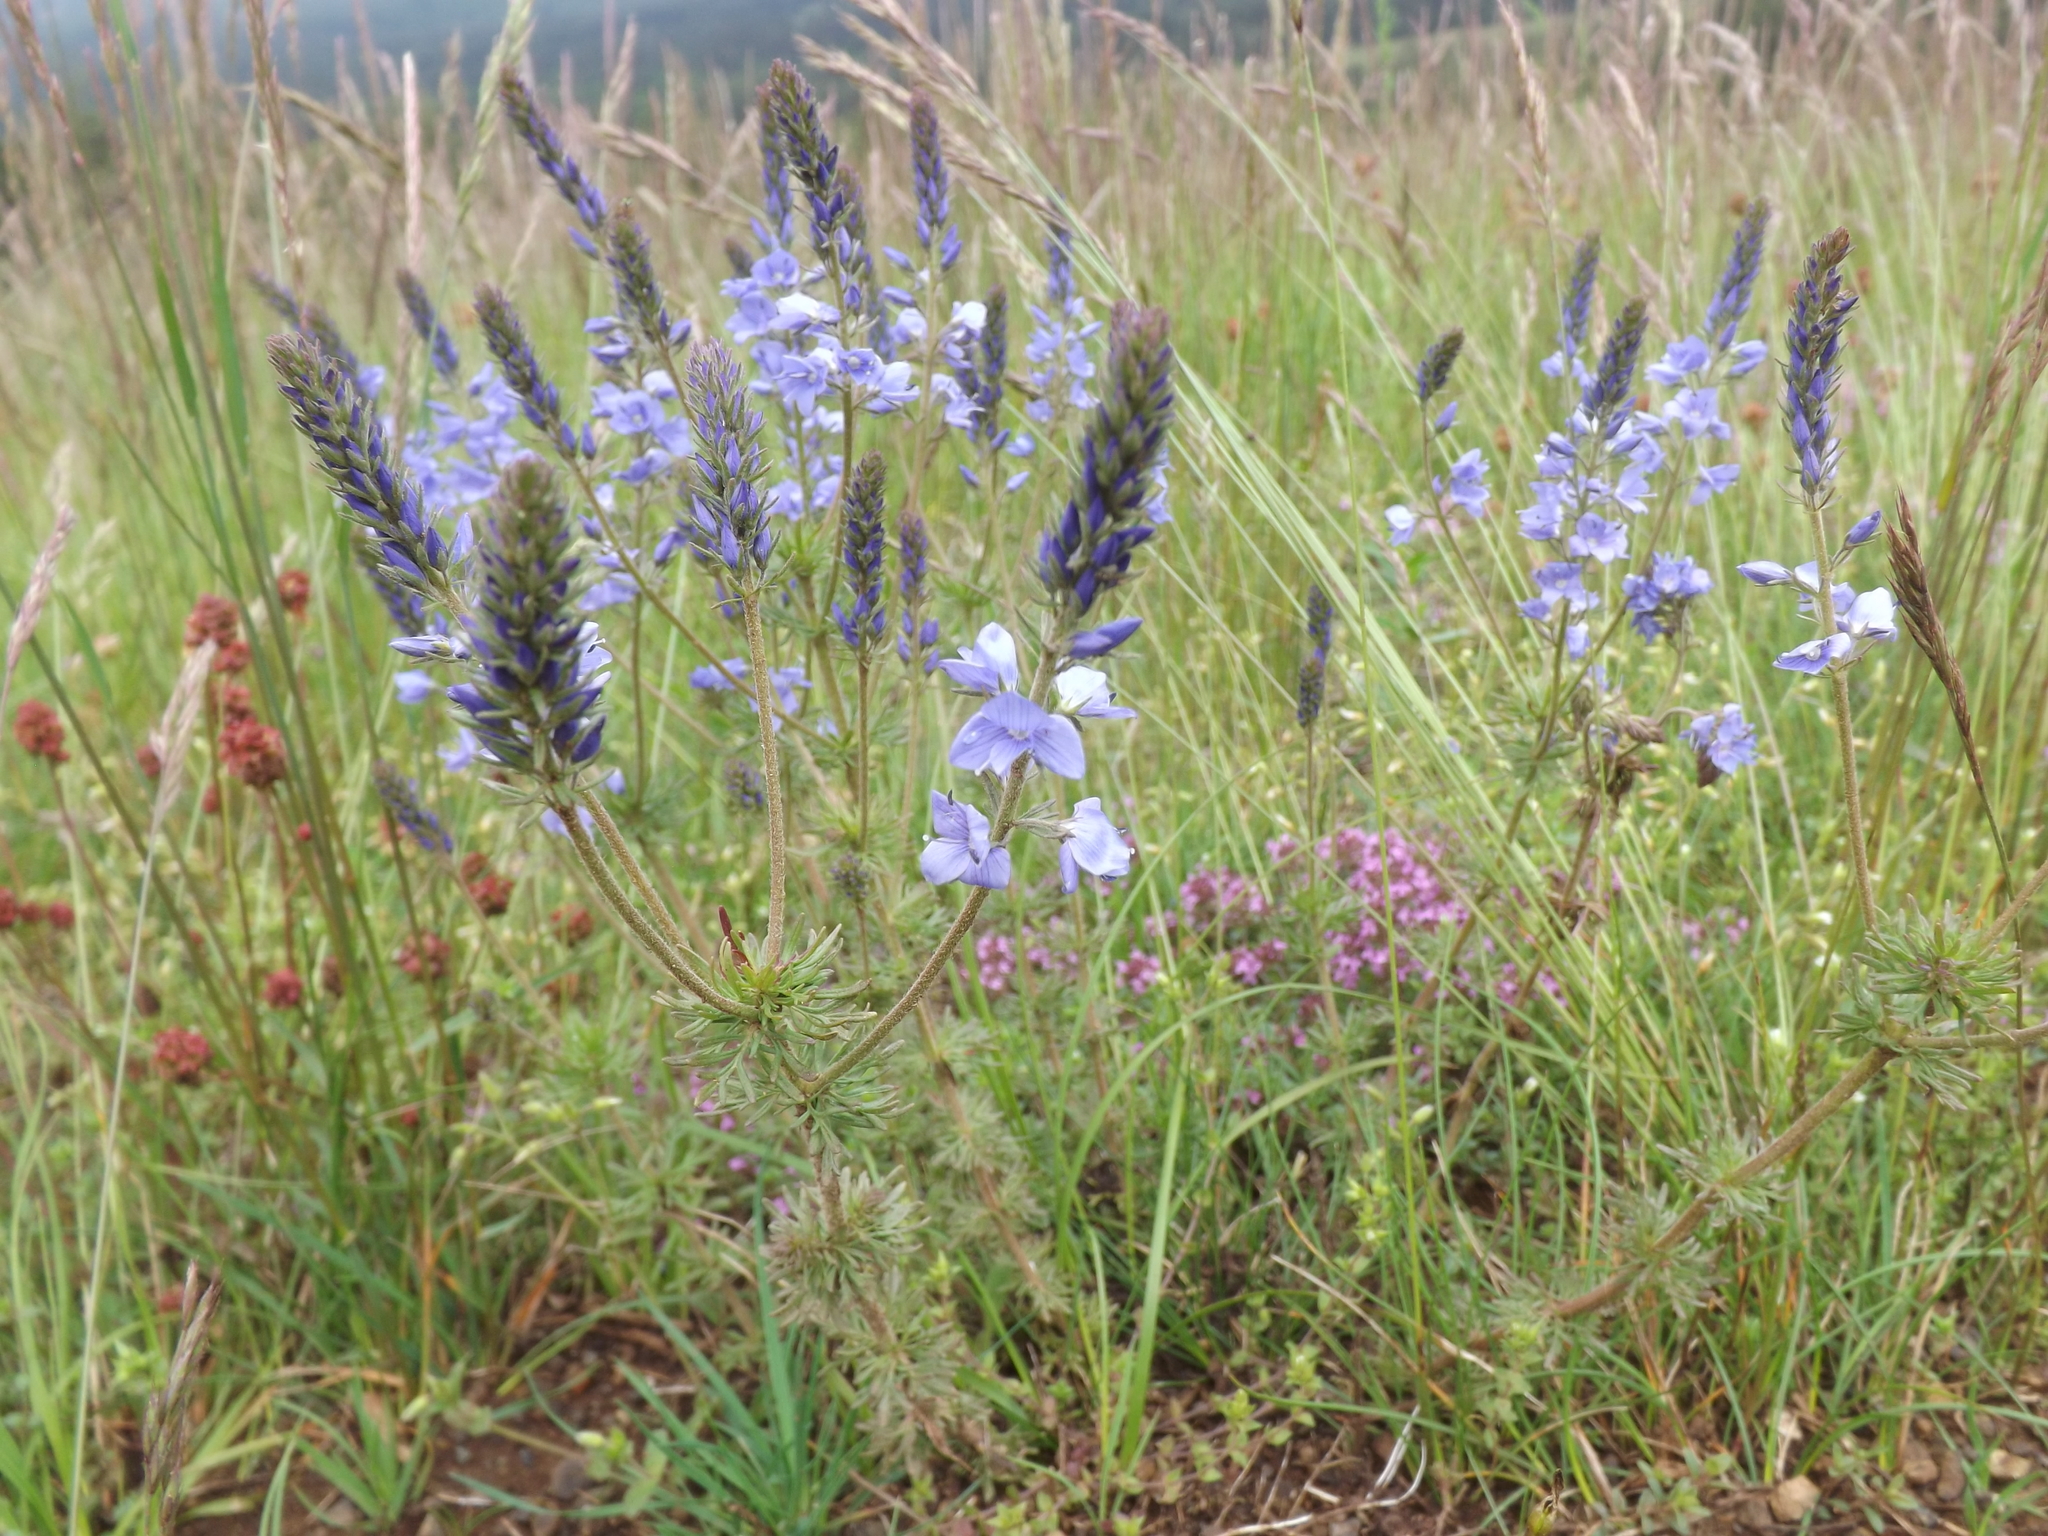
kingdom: Plantae
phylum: Tracheophyta
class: Magnoliopsida
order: Lamiales
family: Plantaginaceae
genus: Veronica
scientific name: Veronica austriaca
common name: Large speedwell
